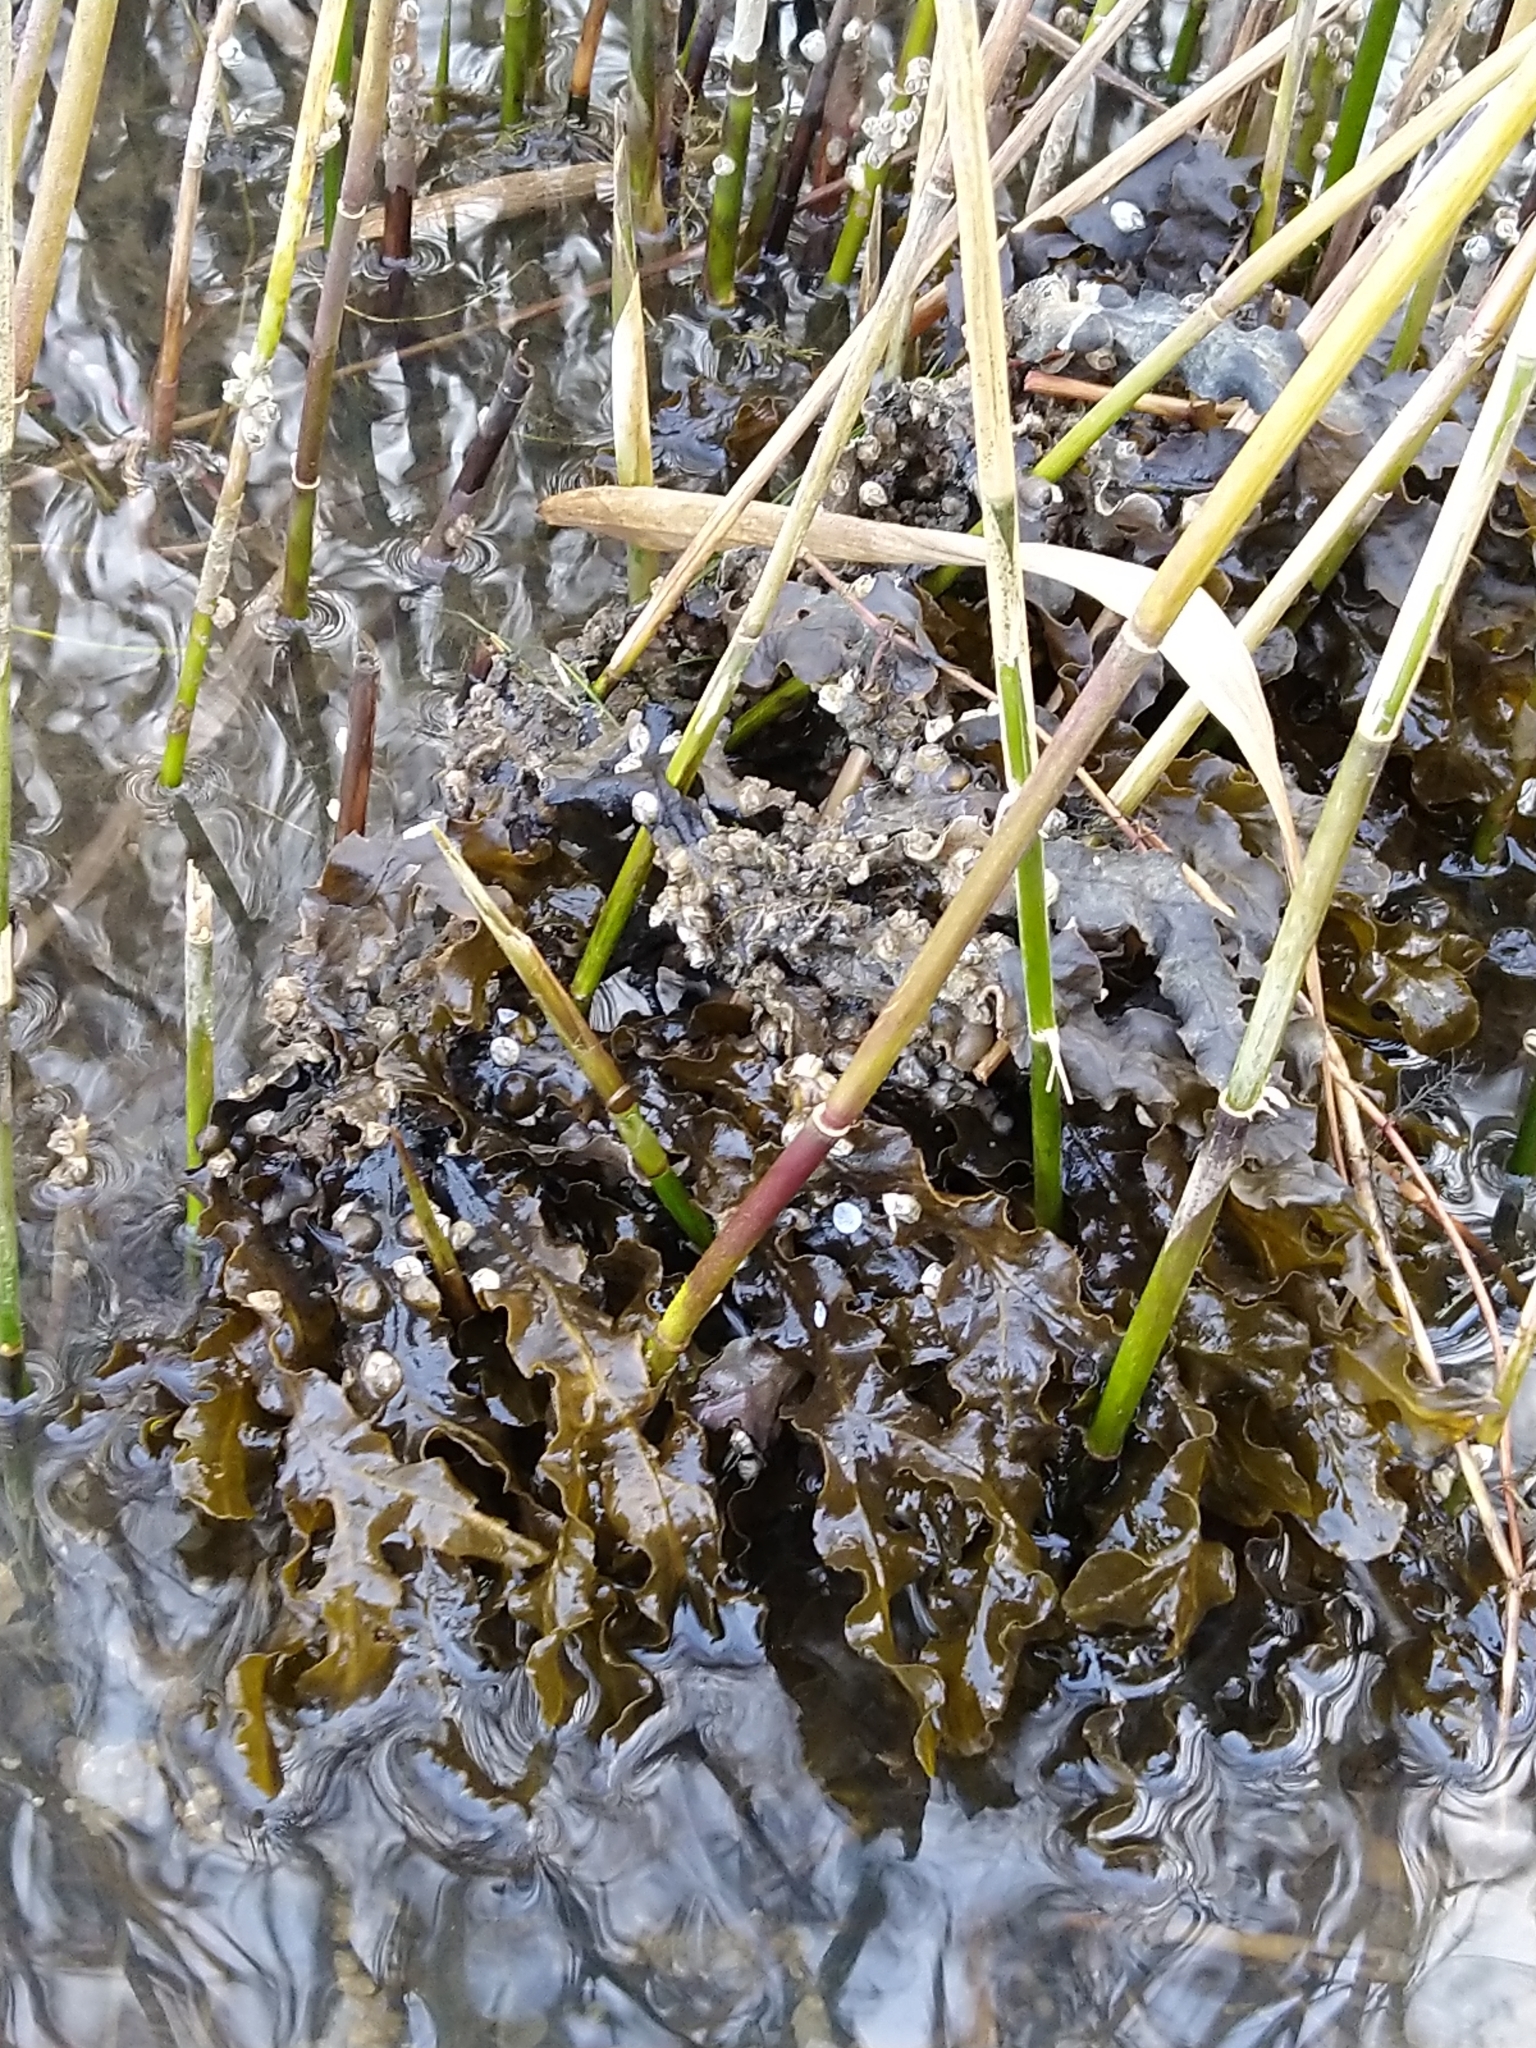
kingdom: Chromista
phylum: Ochrophyta
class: Phaeophyceae
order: Fucales
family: Fucaceae
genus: Fucus
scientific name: Fucus vesiculosus
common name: Bladder wrack
